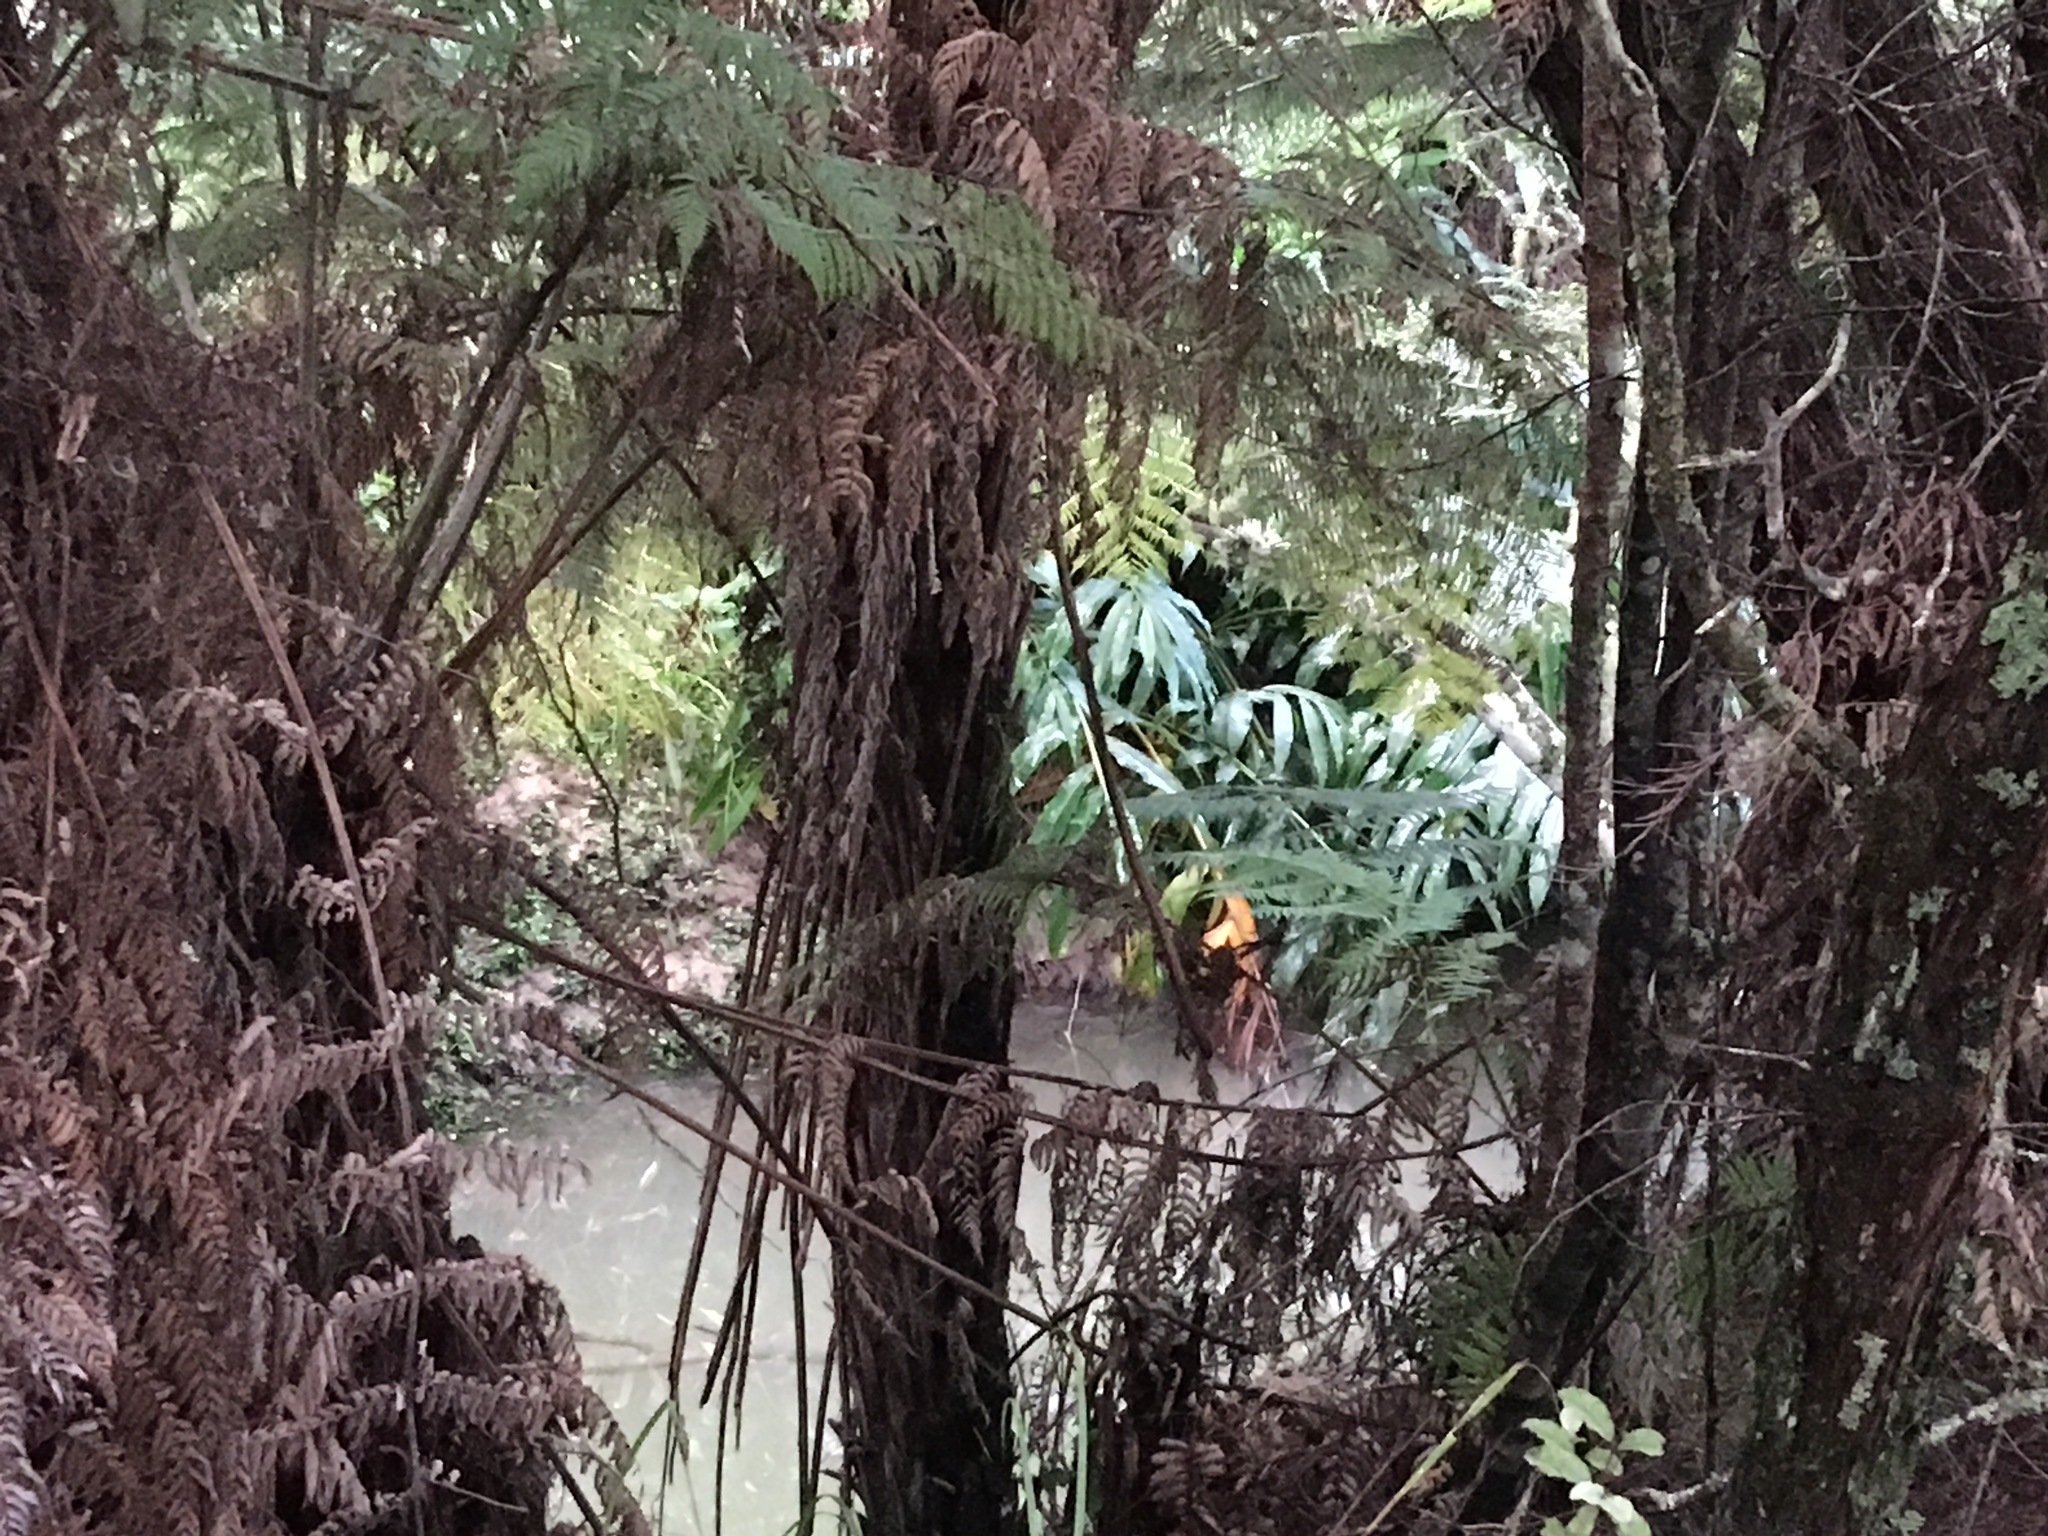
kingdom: Plantae
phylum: Tracheophyta
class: Liliopsida
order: Zingiberales
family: Zingiberaceae
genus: Hedychium
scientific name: Hedychium gardnerianum
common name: Himalayan ginger
